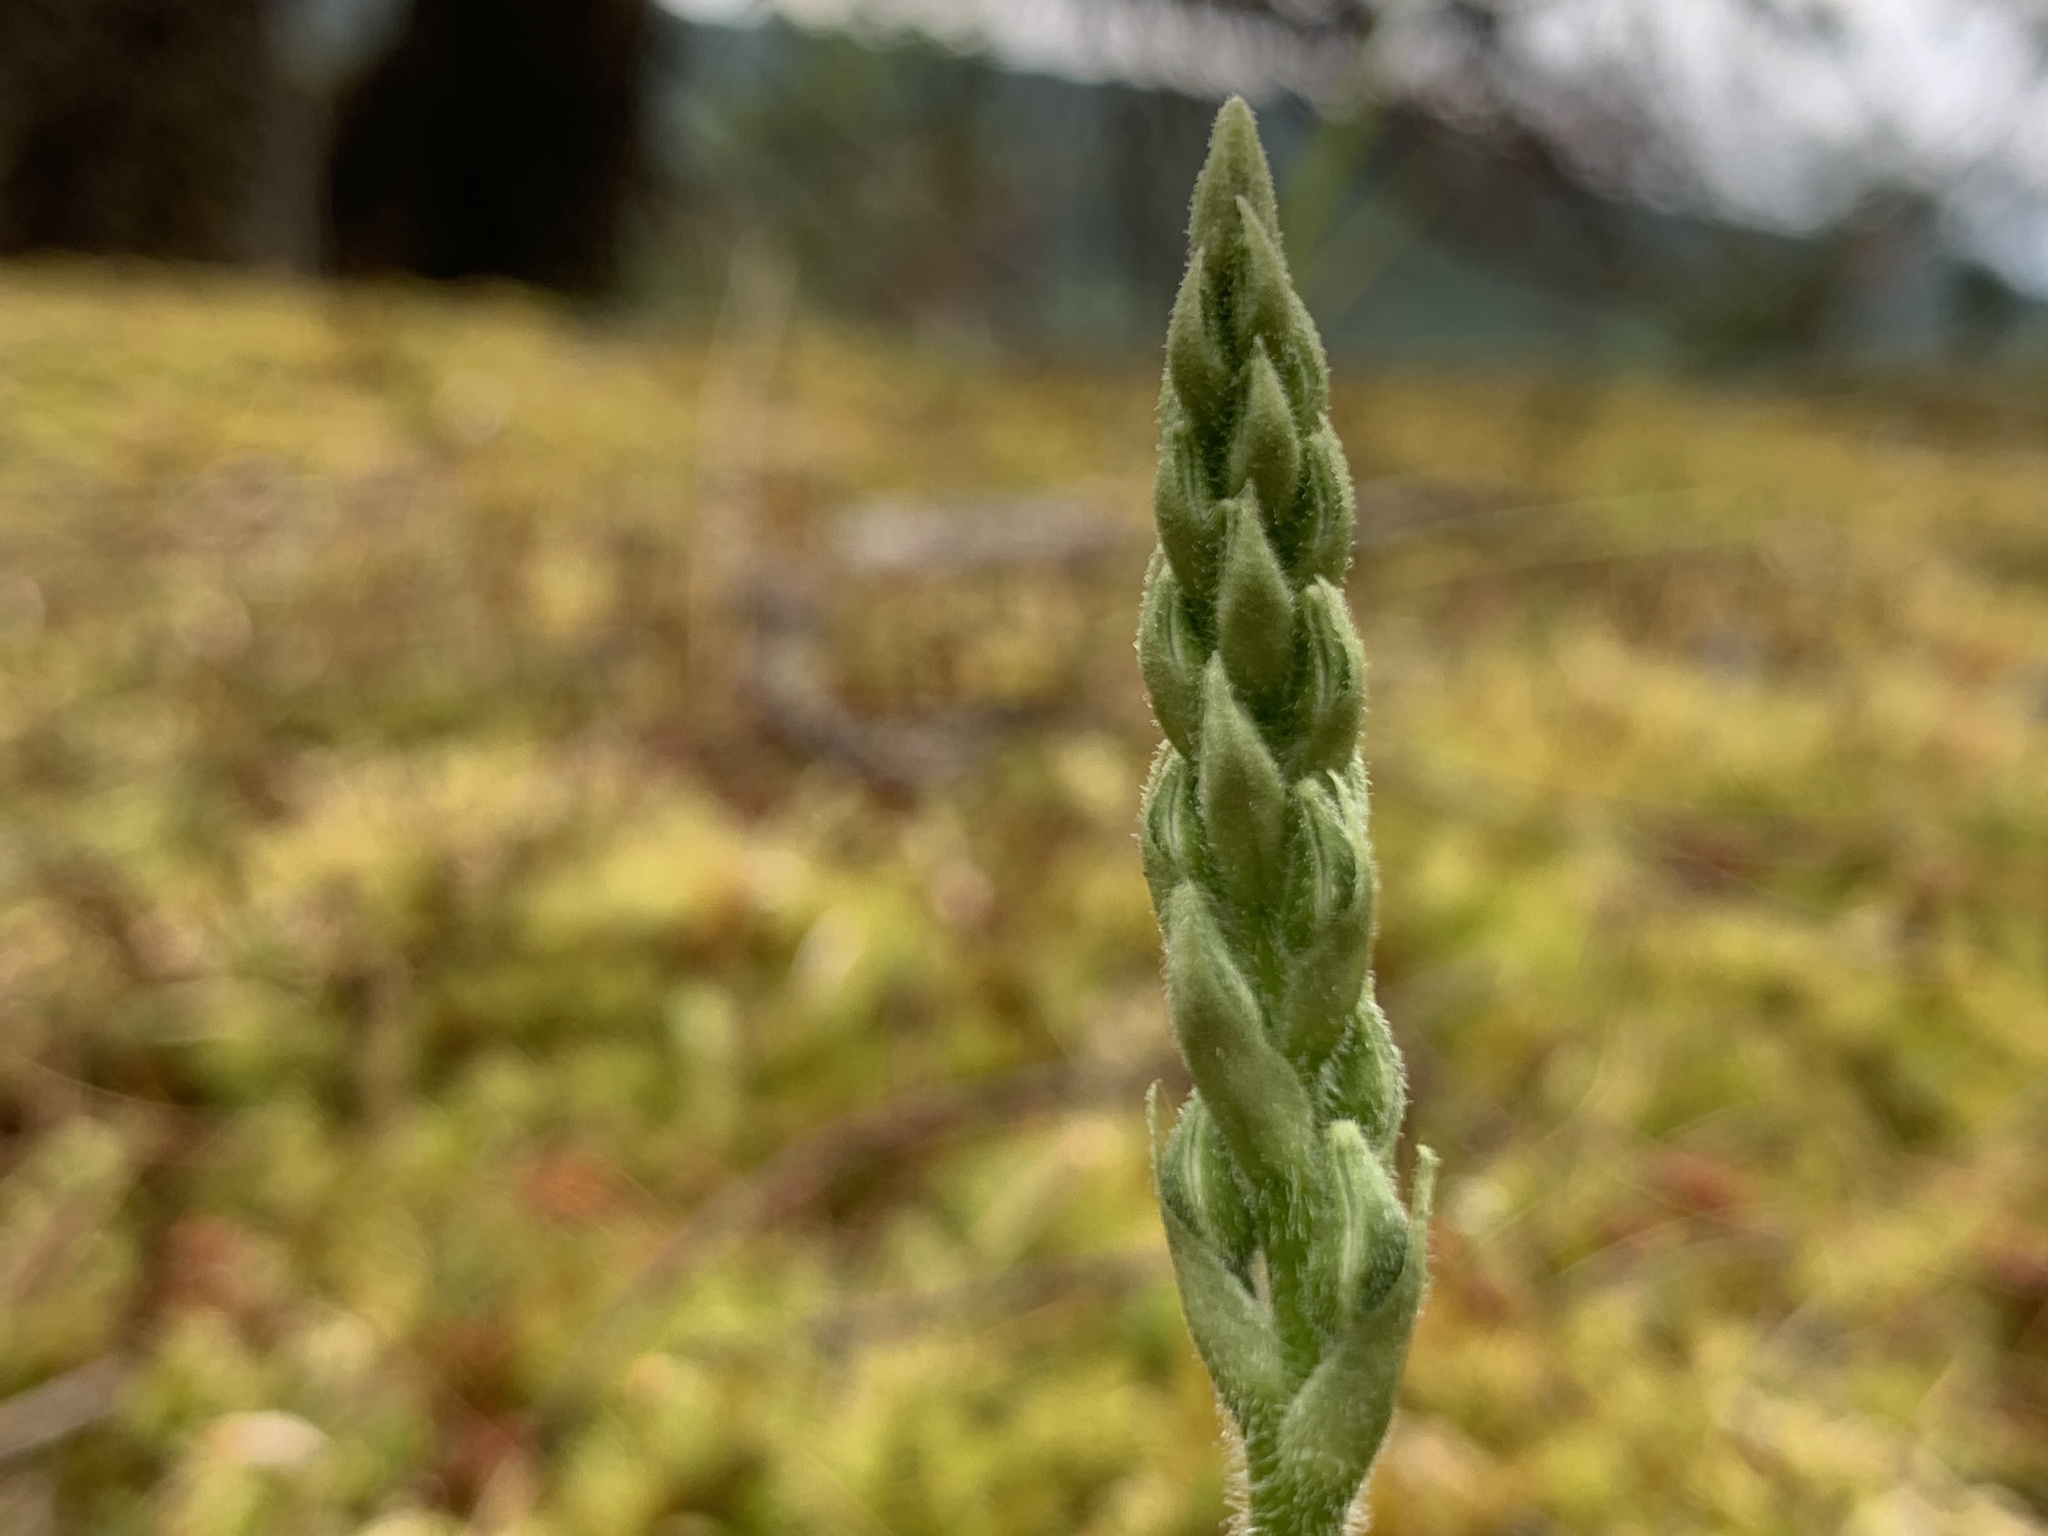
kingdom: Plantae
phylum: Tracheophyta
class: Liliopsida
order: Asparagales
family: Orchidaceae
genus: Goodyera
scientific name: Goodyera oblongifolia
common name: Giant rattlesnake-plantain
